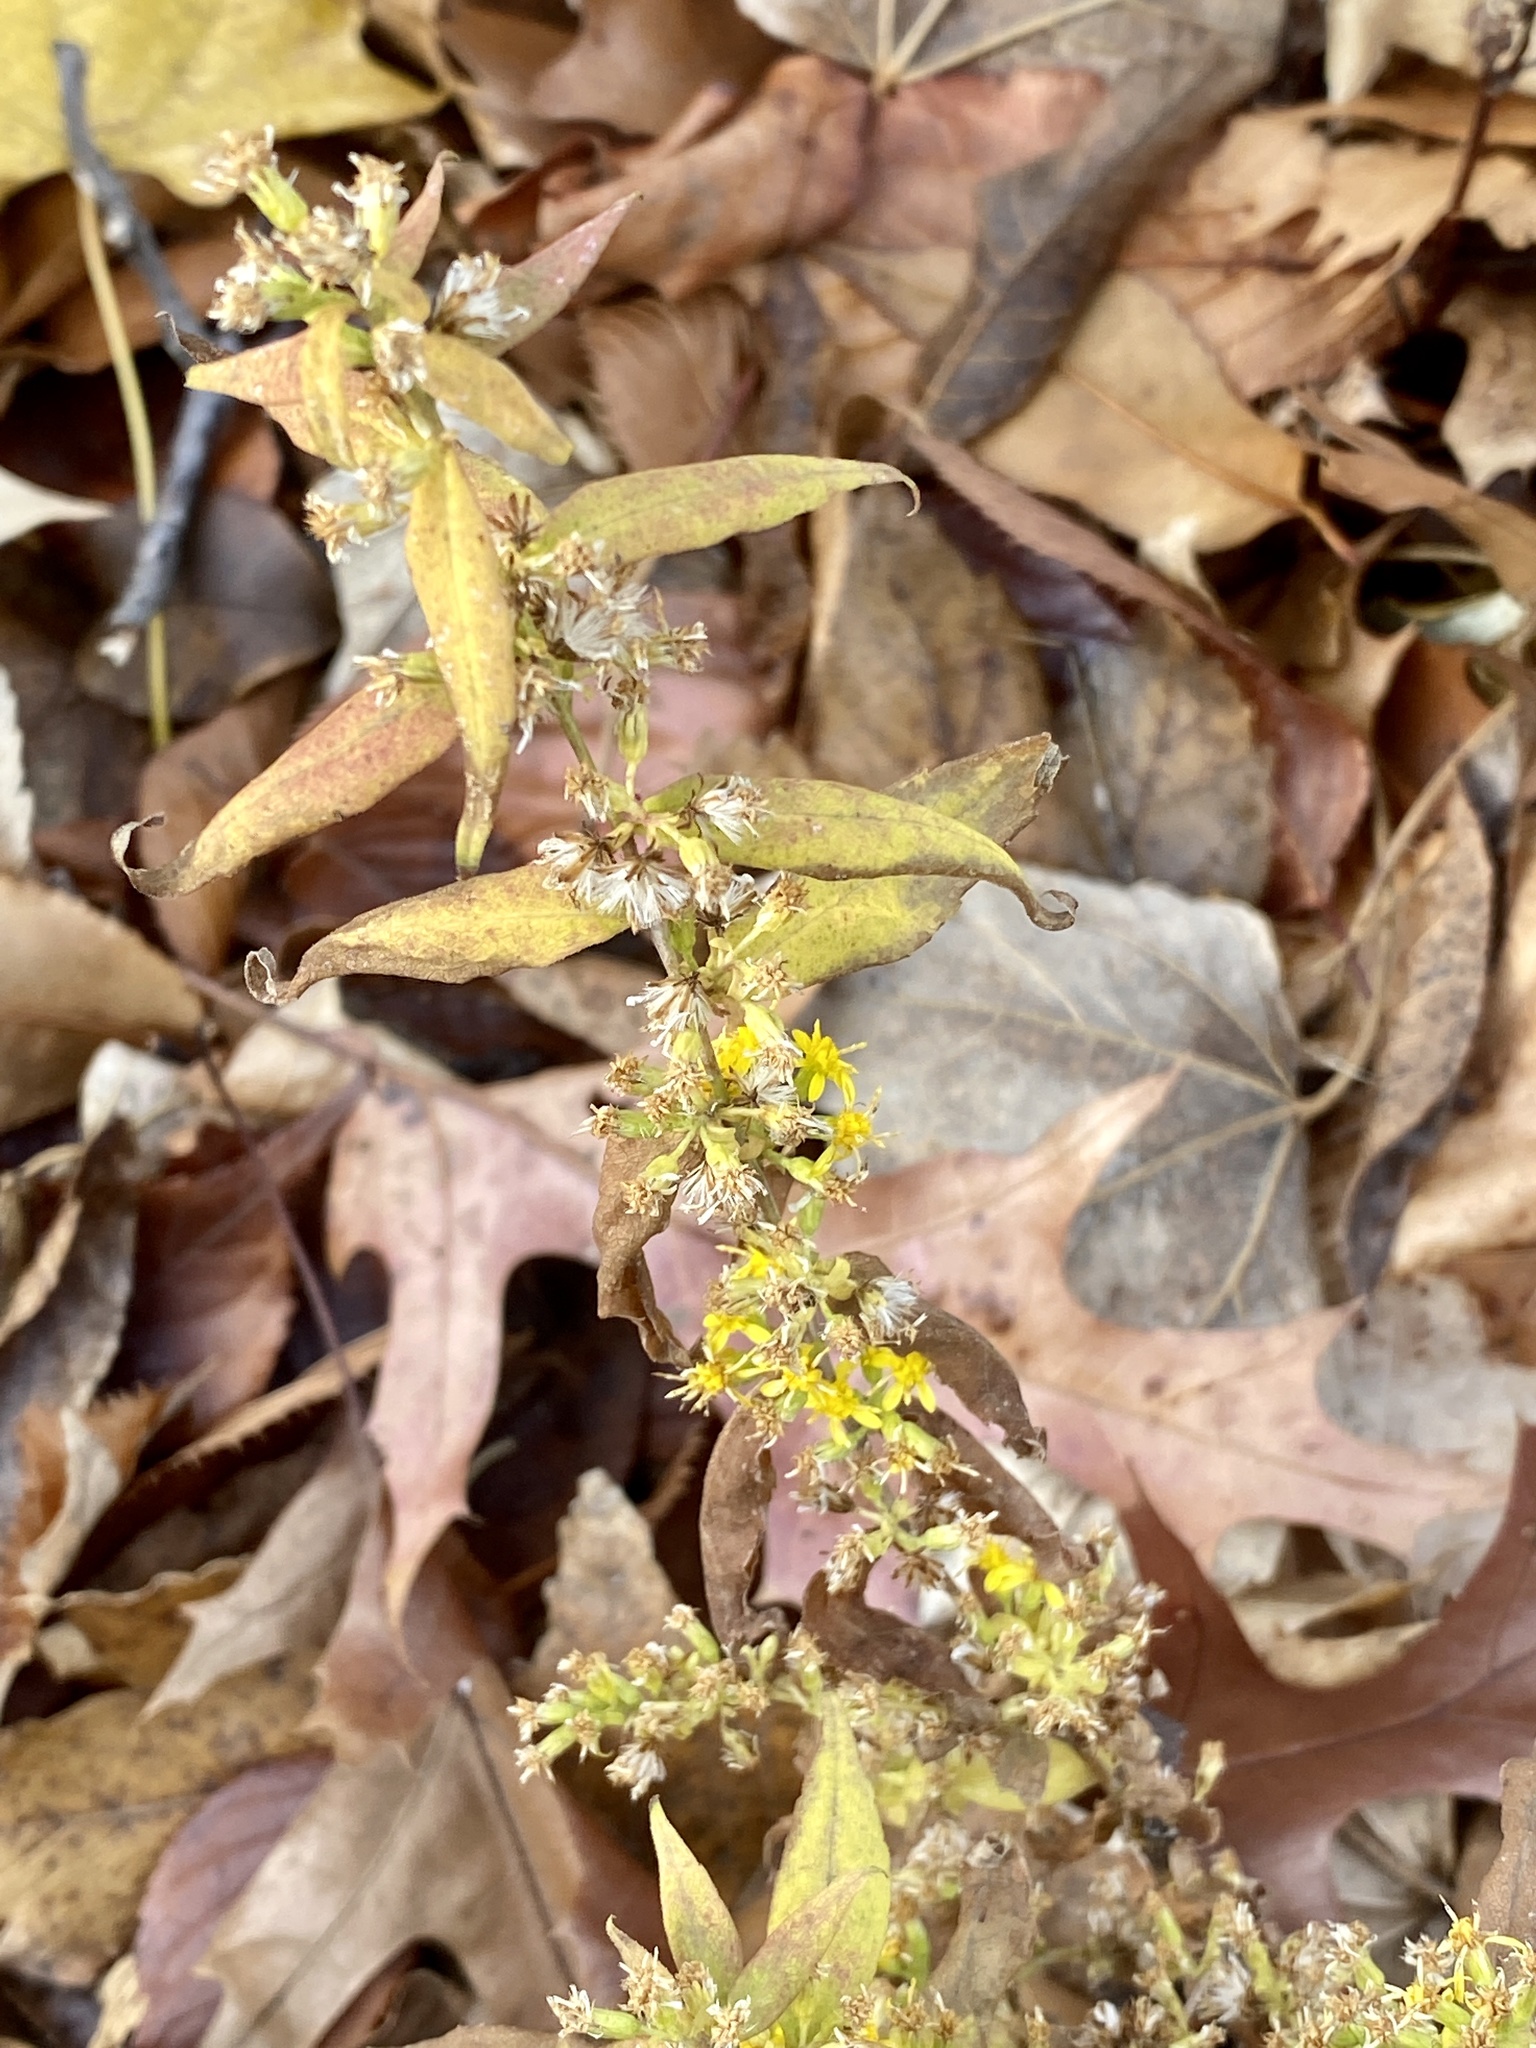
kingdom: Plantae
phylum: Tracheophyta
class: Magnoliopsida
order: Asterales
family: Asteraceae
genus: Solidago
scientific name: Solidago caesia
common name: Woodland goldenrod
